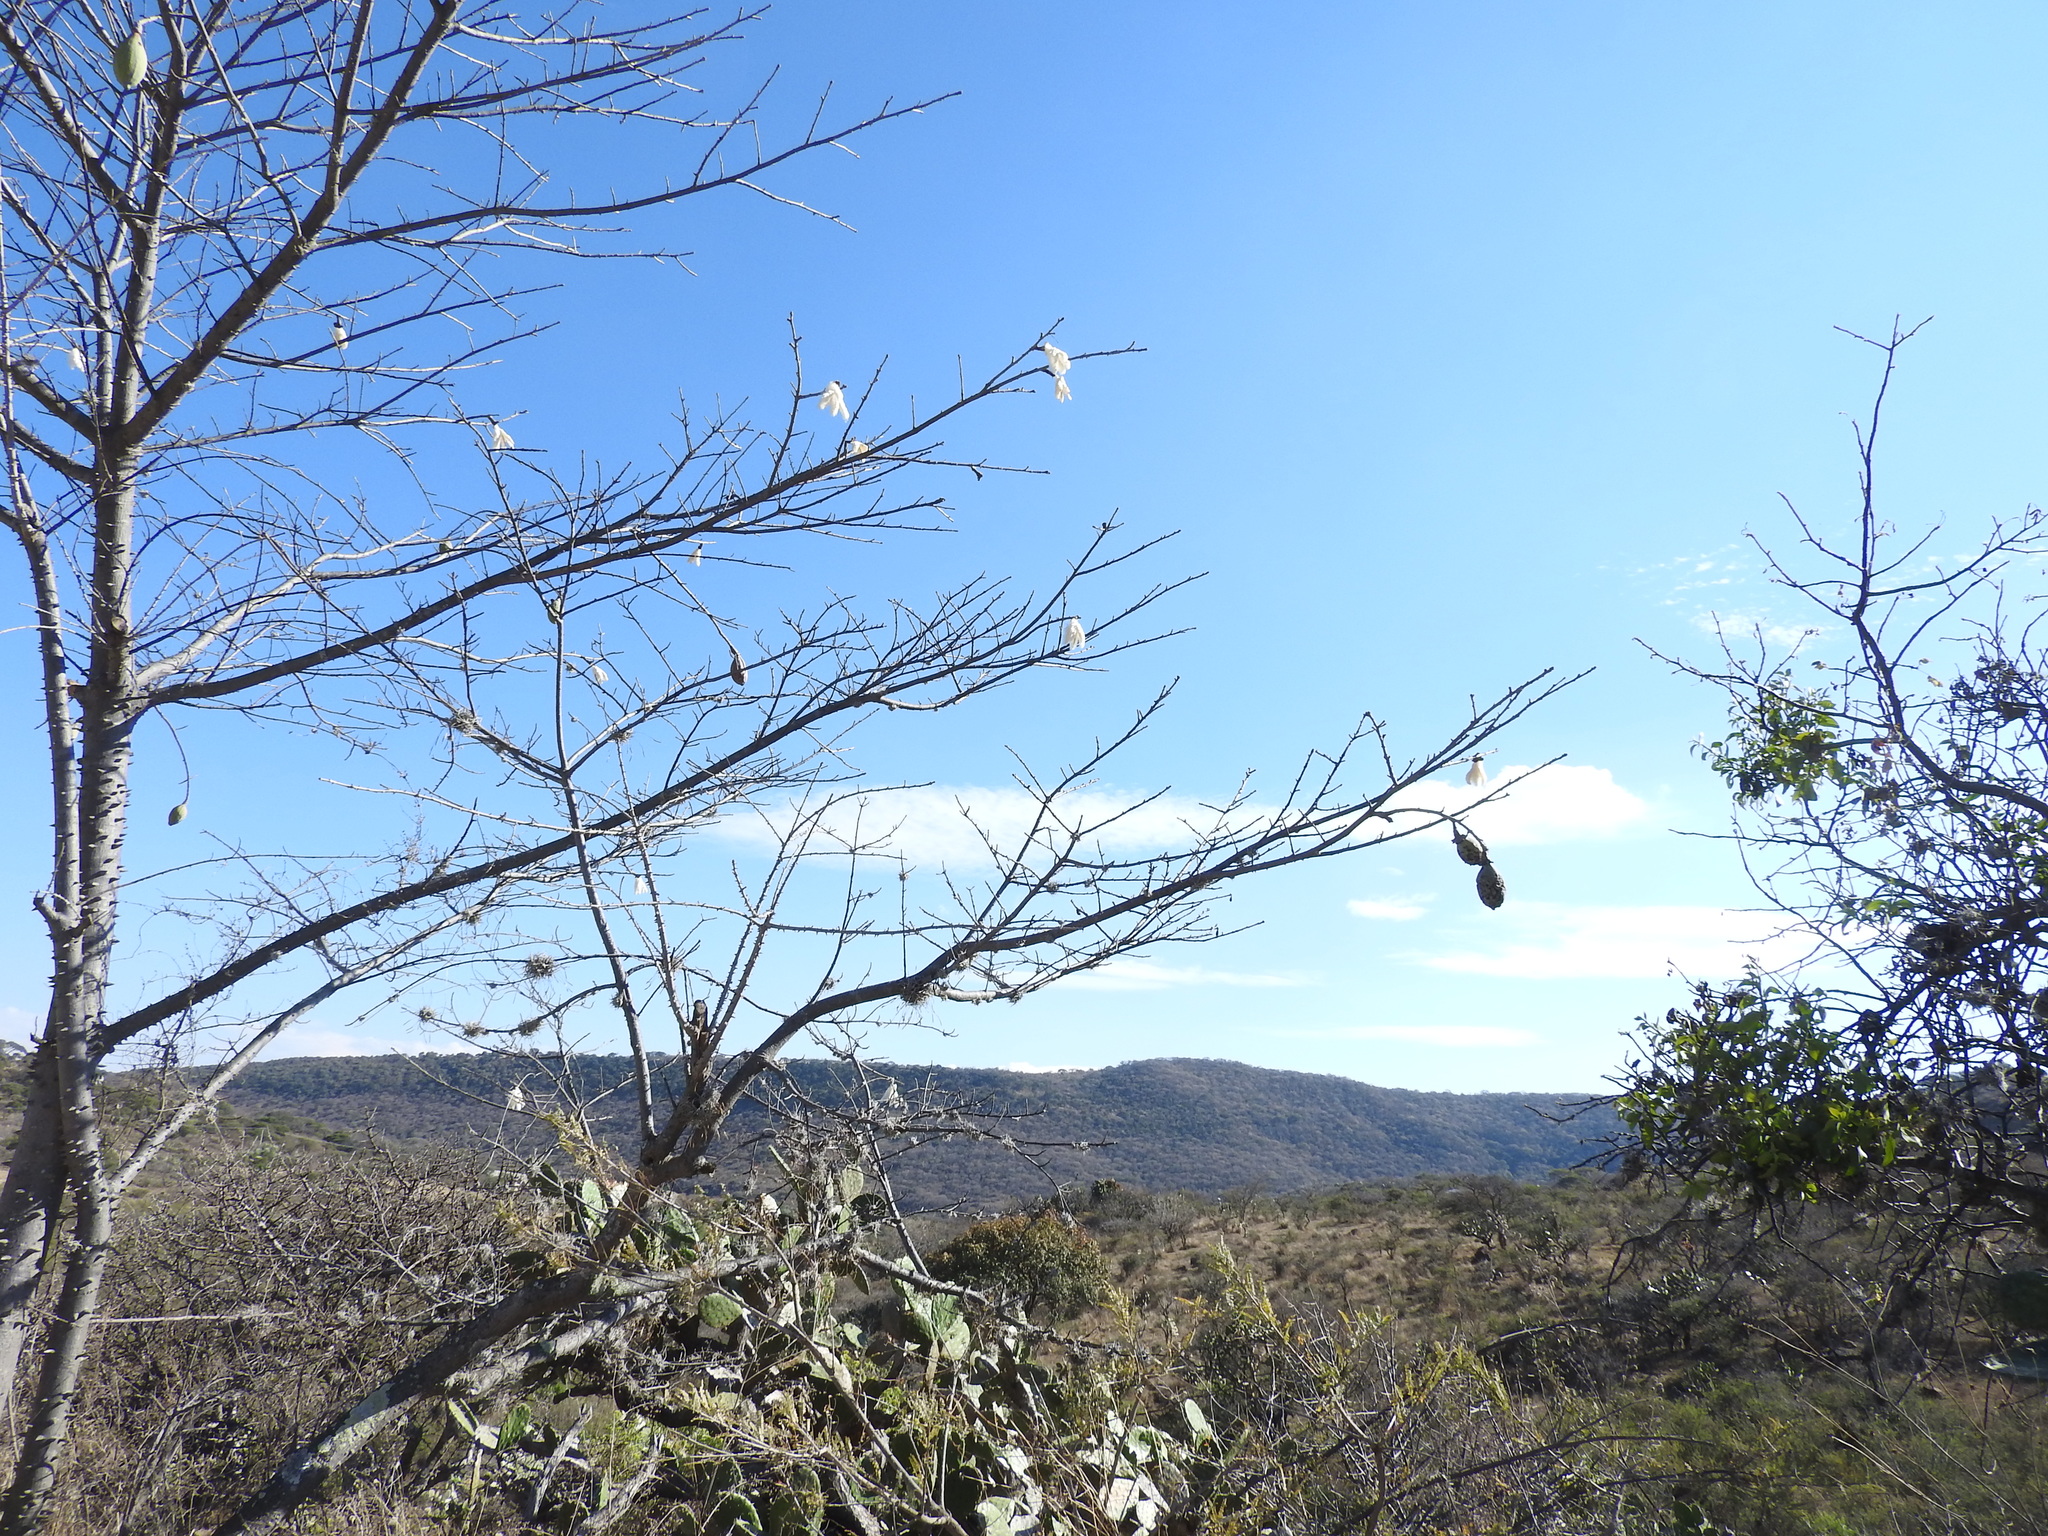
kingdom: Plantae
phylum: Tracheophyta
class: Magnoliopsida
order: Malvales
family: Malvaceae
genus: Ceiba
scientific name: Ceiba aesculifolia
